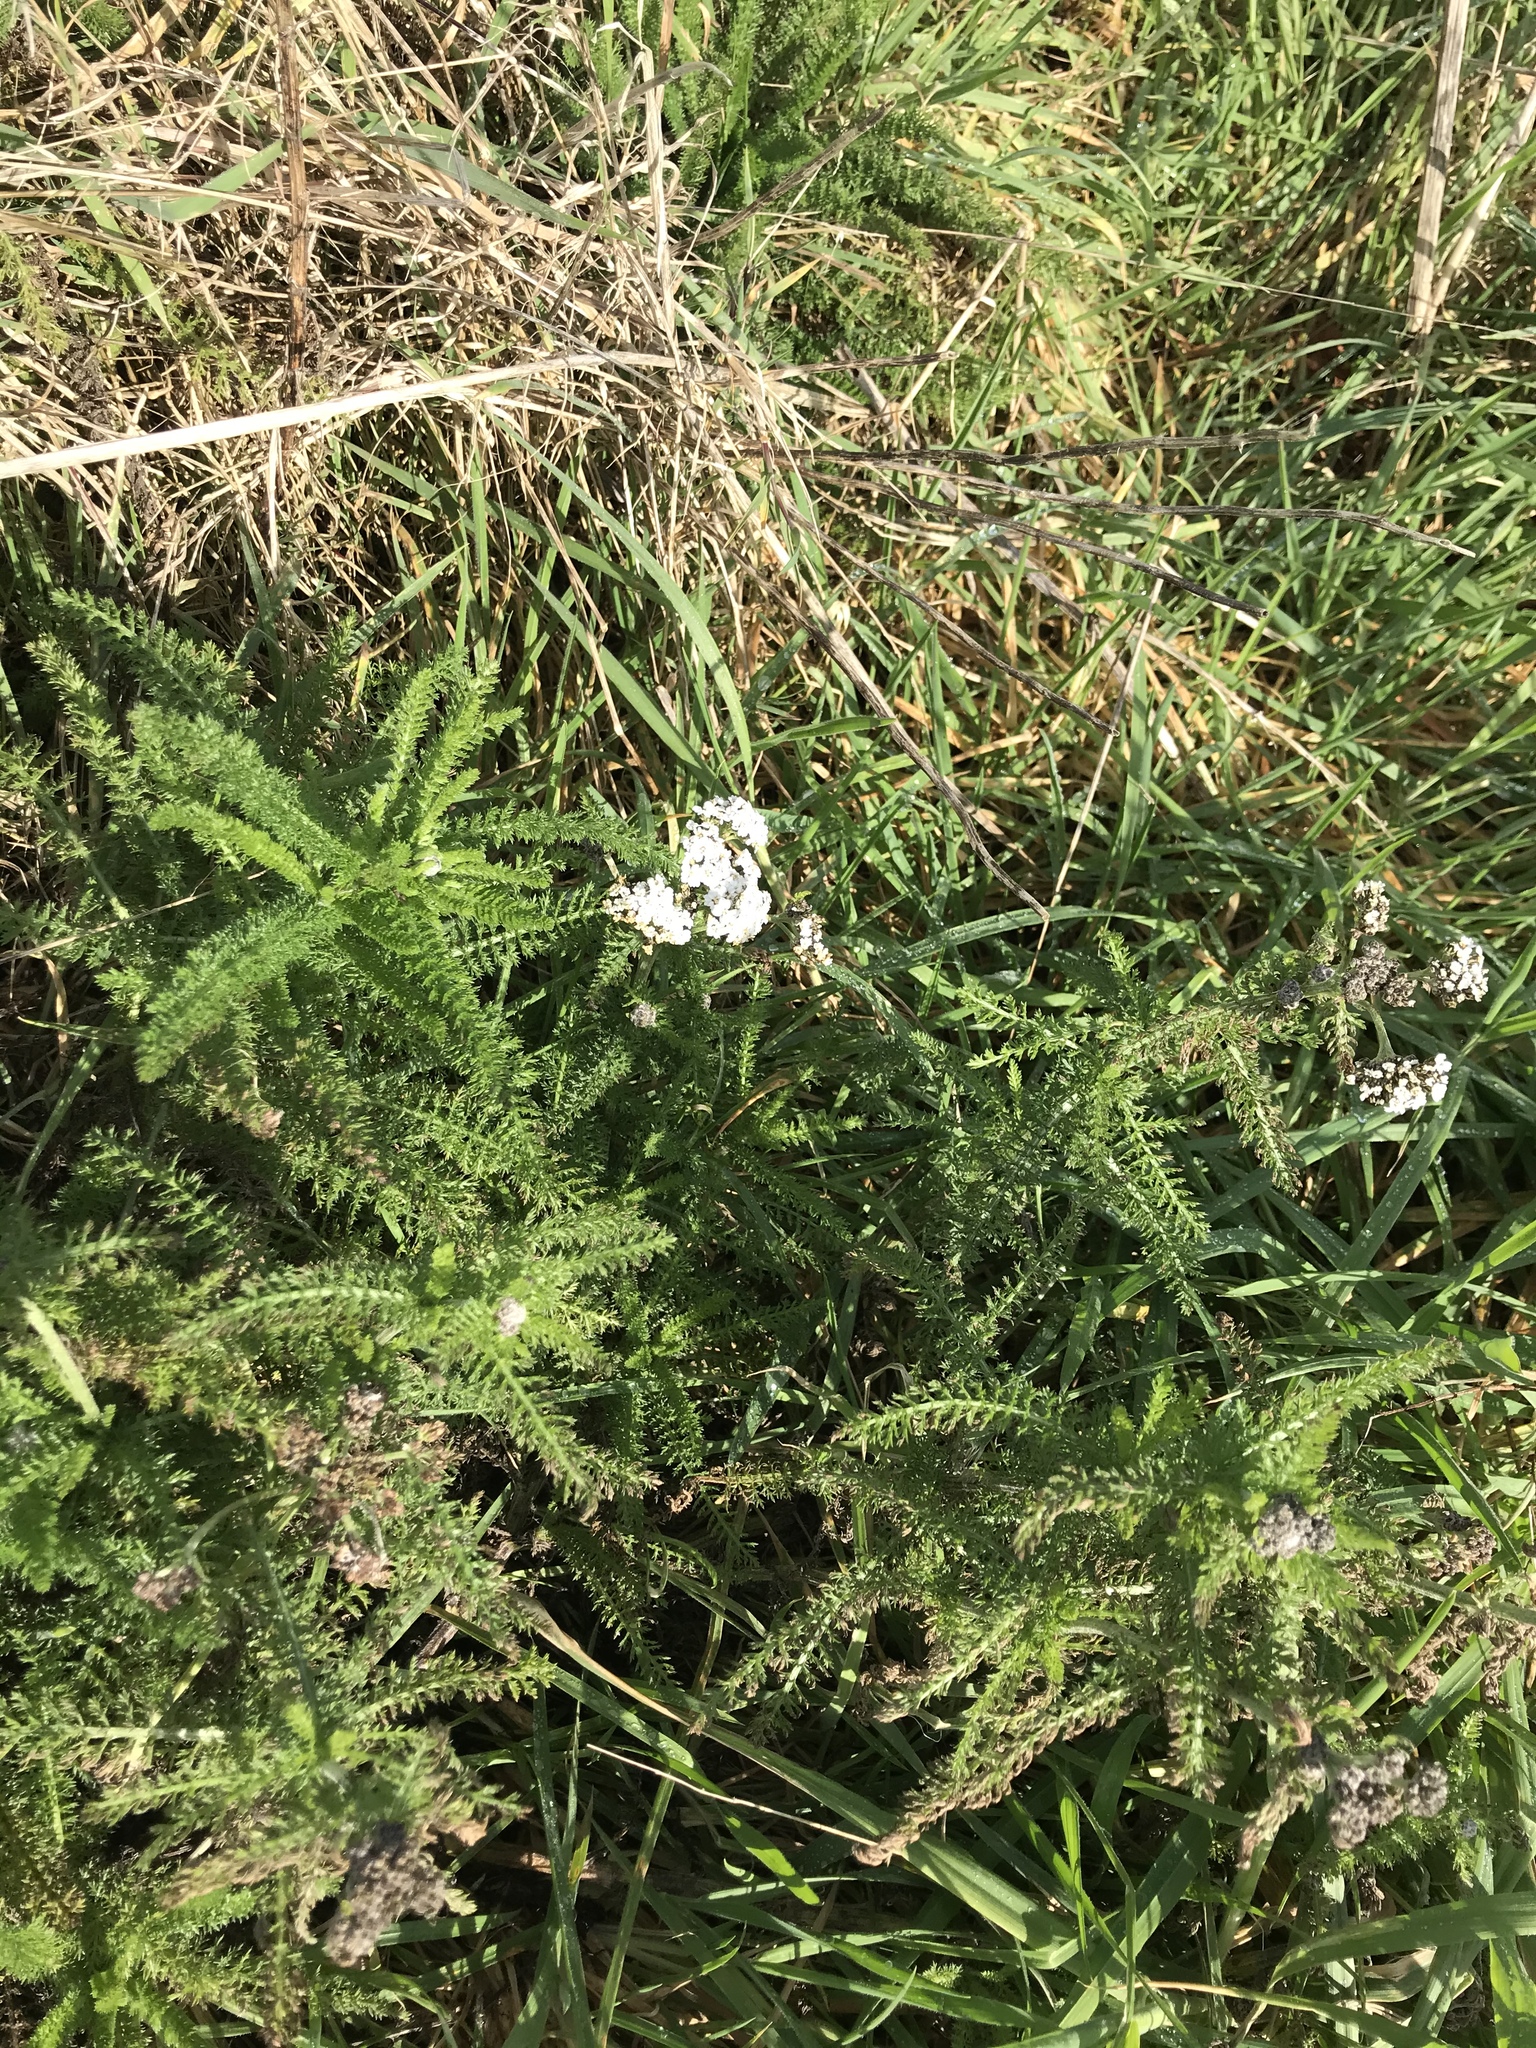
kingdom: Plantae
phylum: Tracheophyta
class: Magnoliopsida
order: Asterales
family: Asteraceae
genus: Achillea
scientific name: Achillea millefolium
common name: Yarrow
